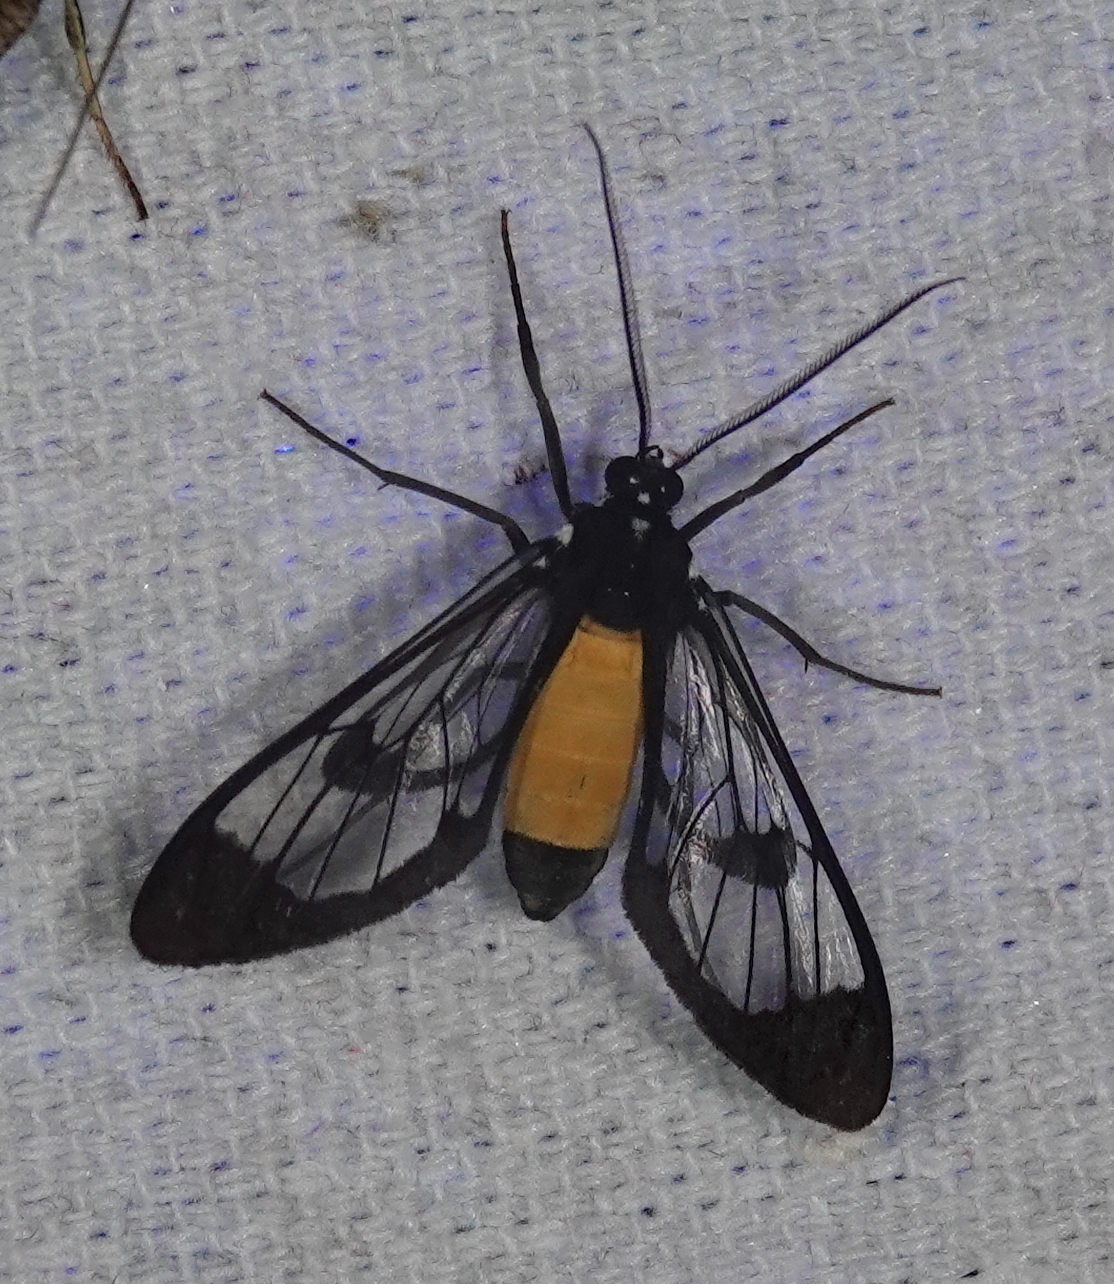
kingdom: Animalia
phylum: Arthropoda
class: Insecta
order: Lepidoptera
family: Erebidae
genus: Cosmosoma
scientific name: Cosmosoma stibosticta
